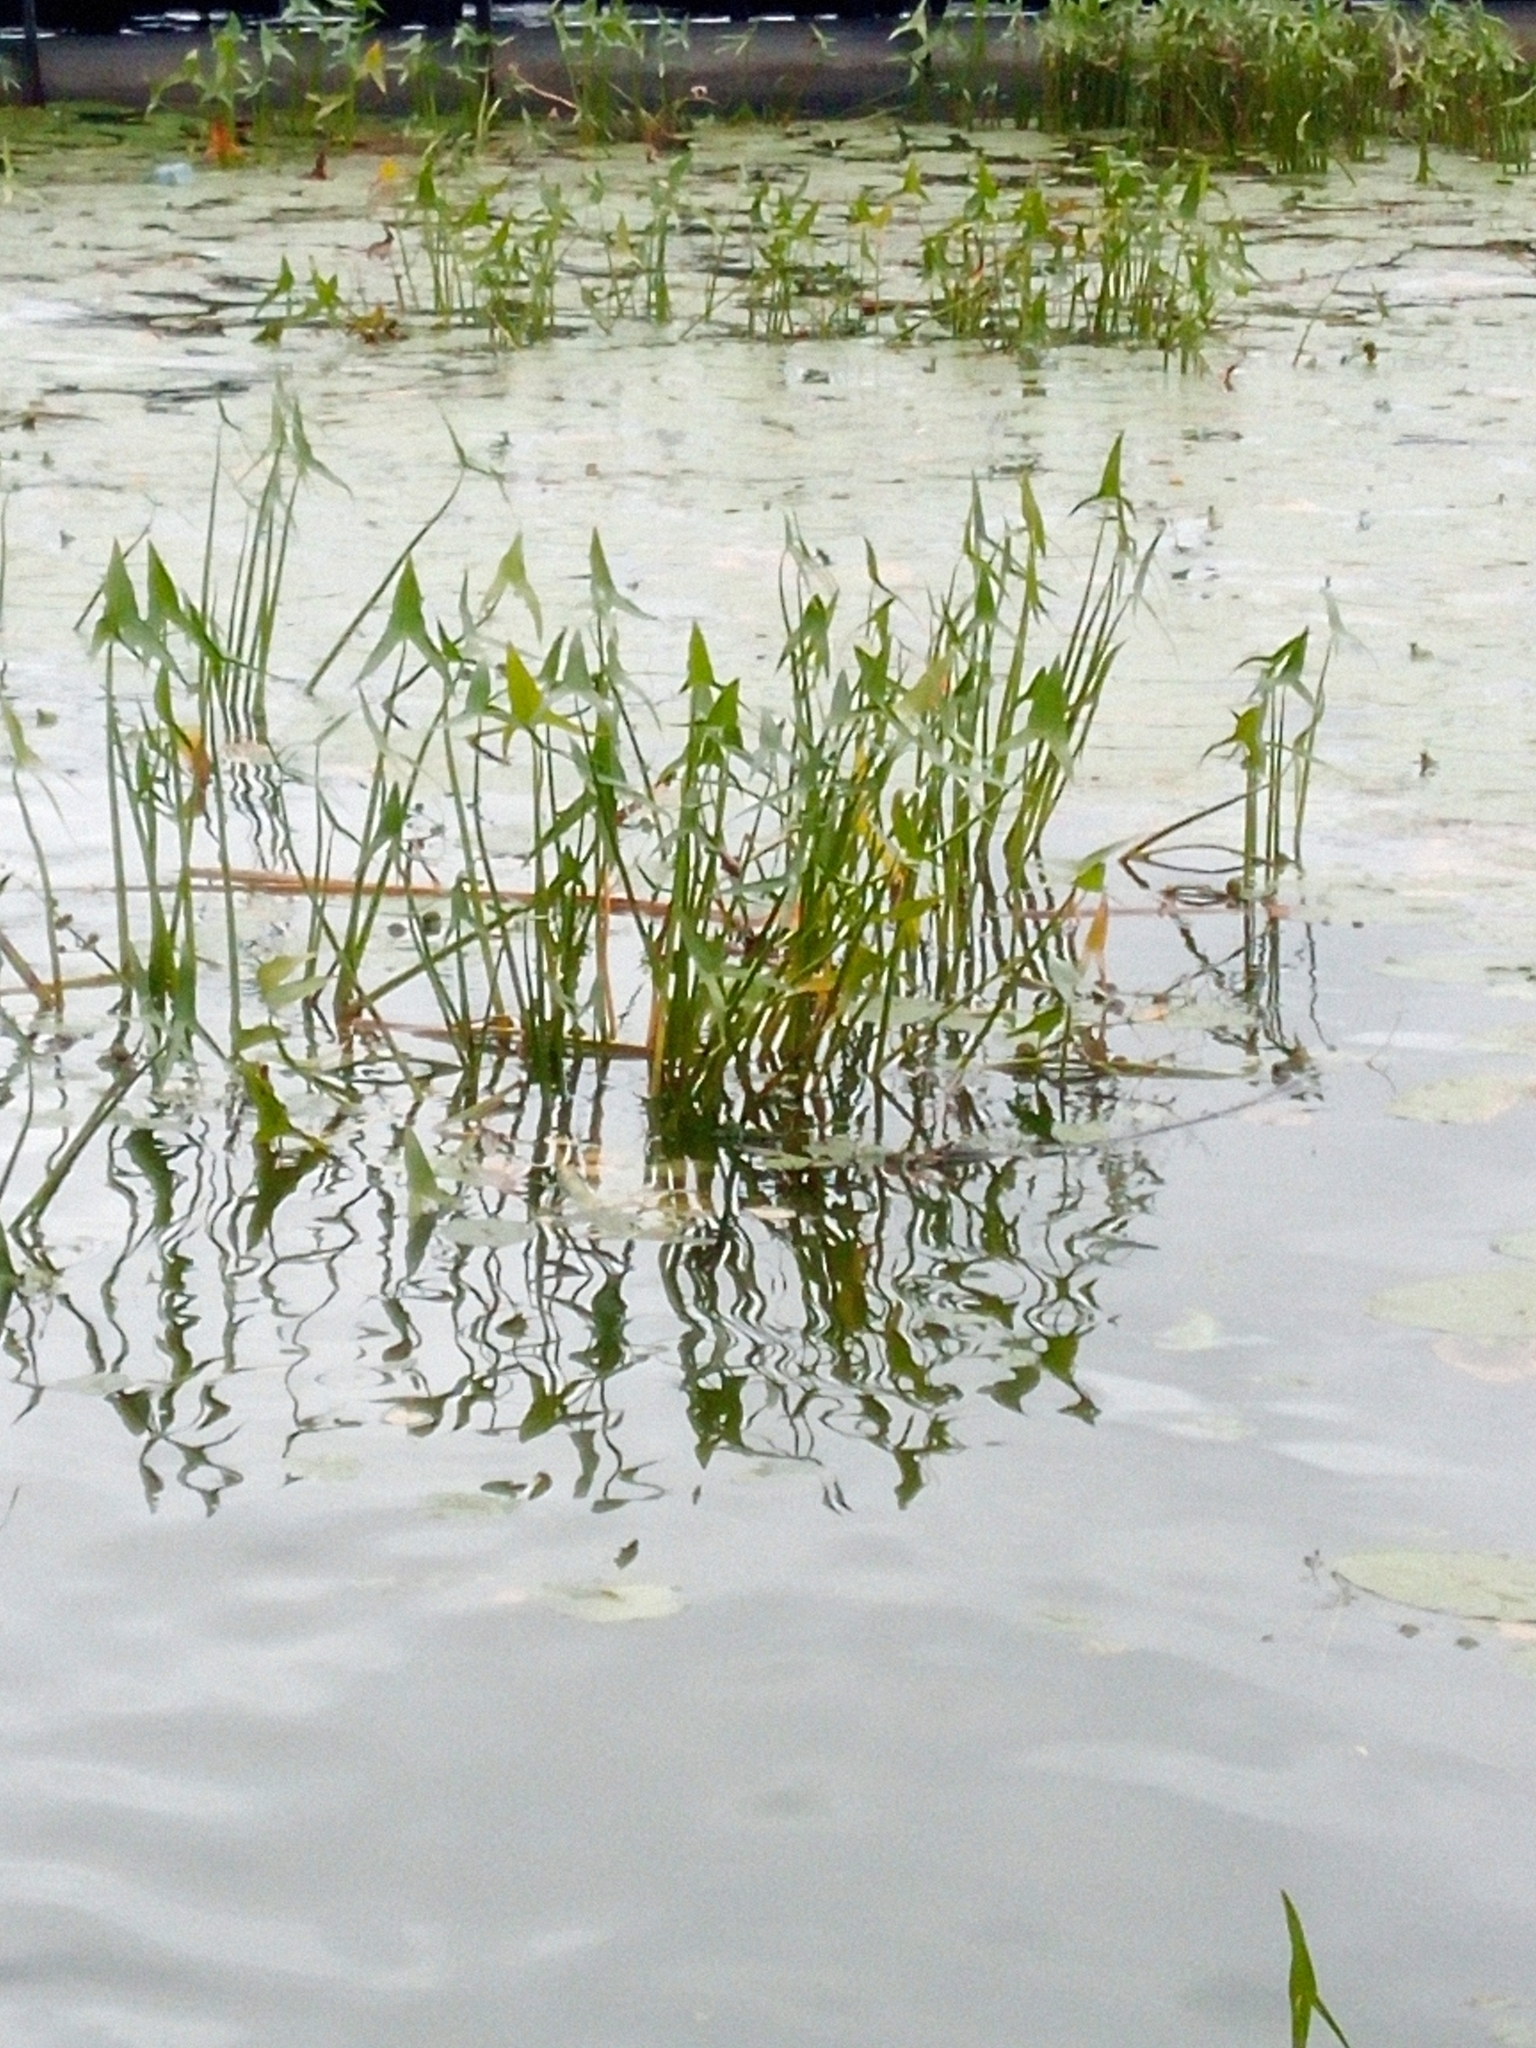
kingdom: Plantae
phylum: Tracheophyta
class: Liliopsida
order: Alismatales
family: Alismataceae
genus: Sagittaria
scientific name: Sagittaria sagittifolia
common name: Arrowhead
